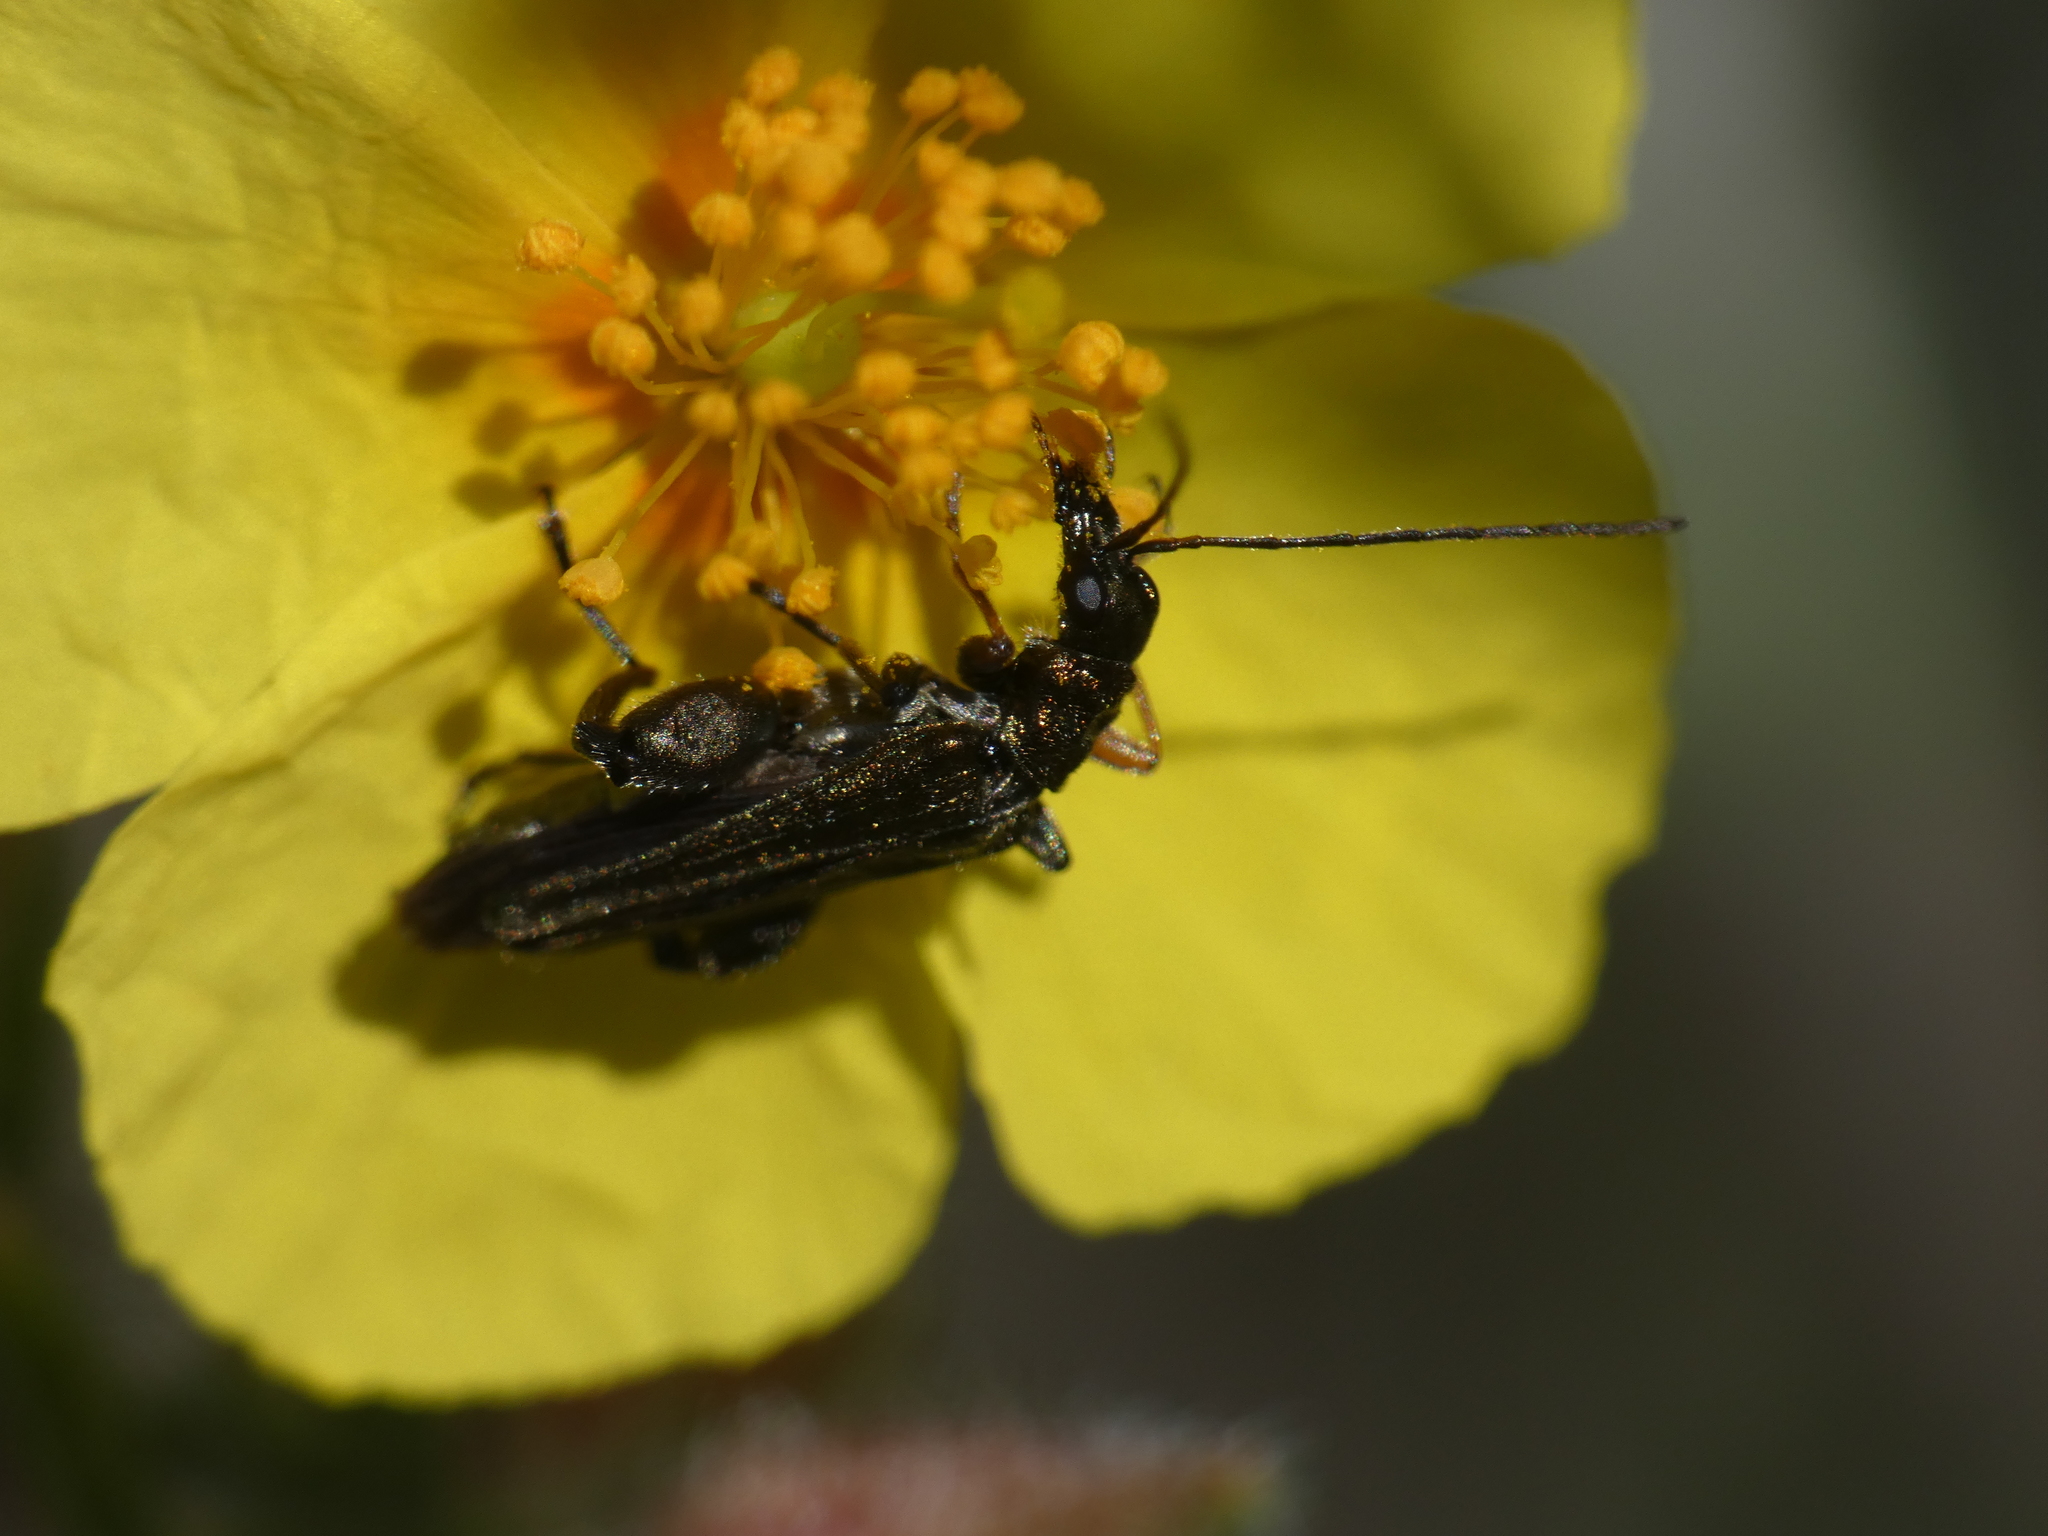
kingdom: Animalia
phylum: Arthropoda
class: Insecta
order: Coleoptera
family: Oedemeridae
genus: Oedemera
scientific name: Oedemera flavipes
